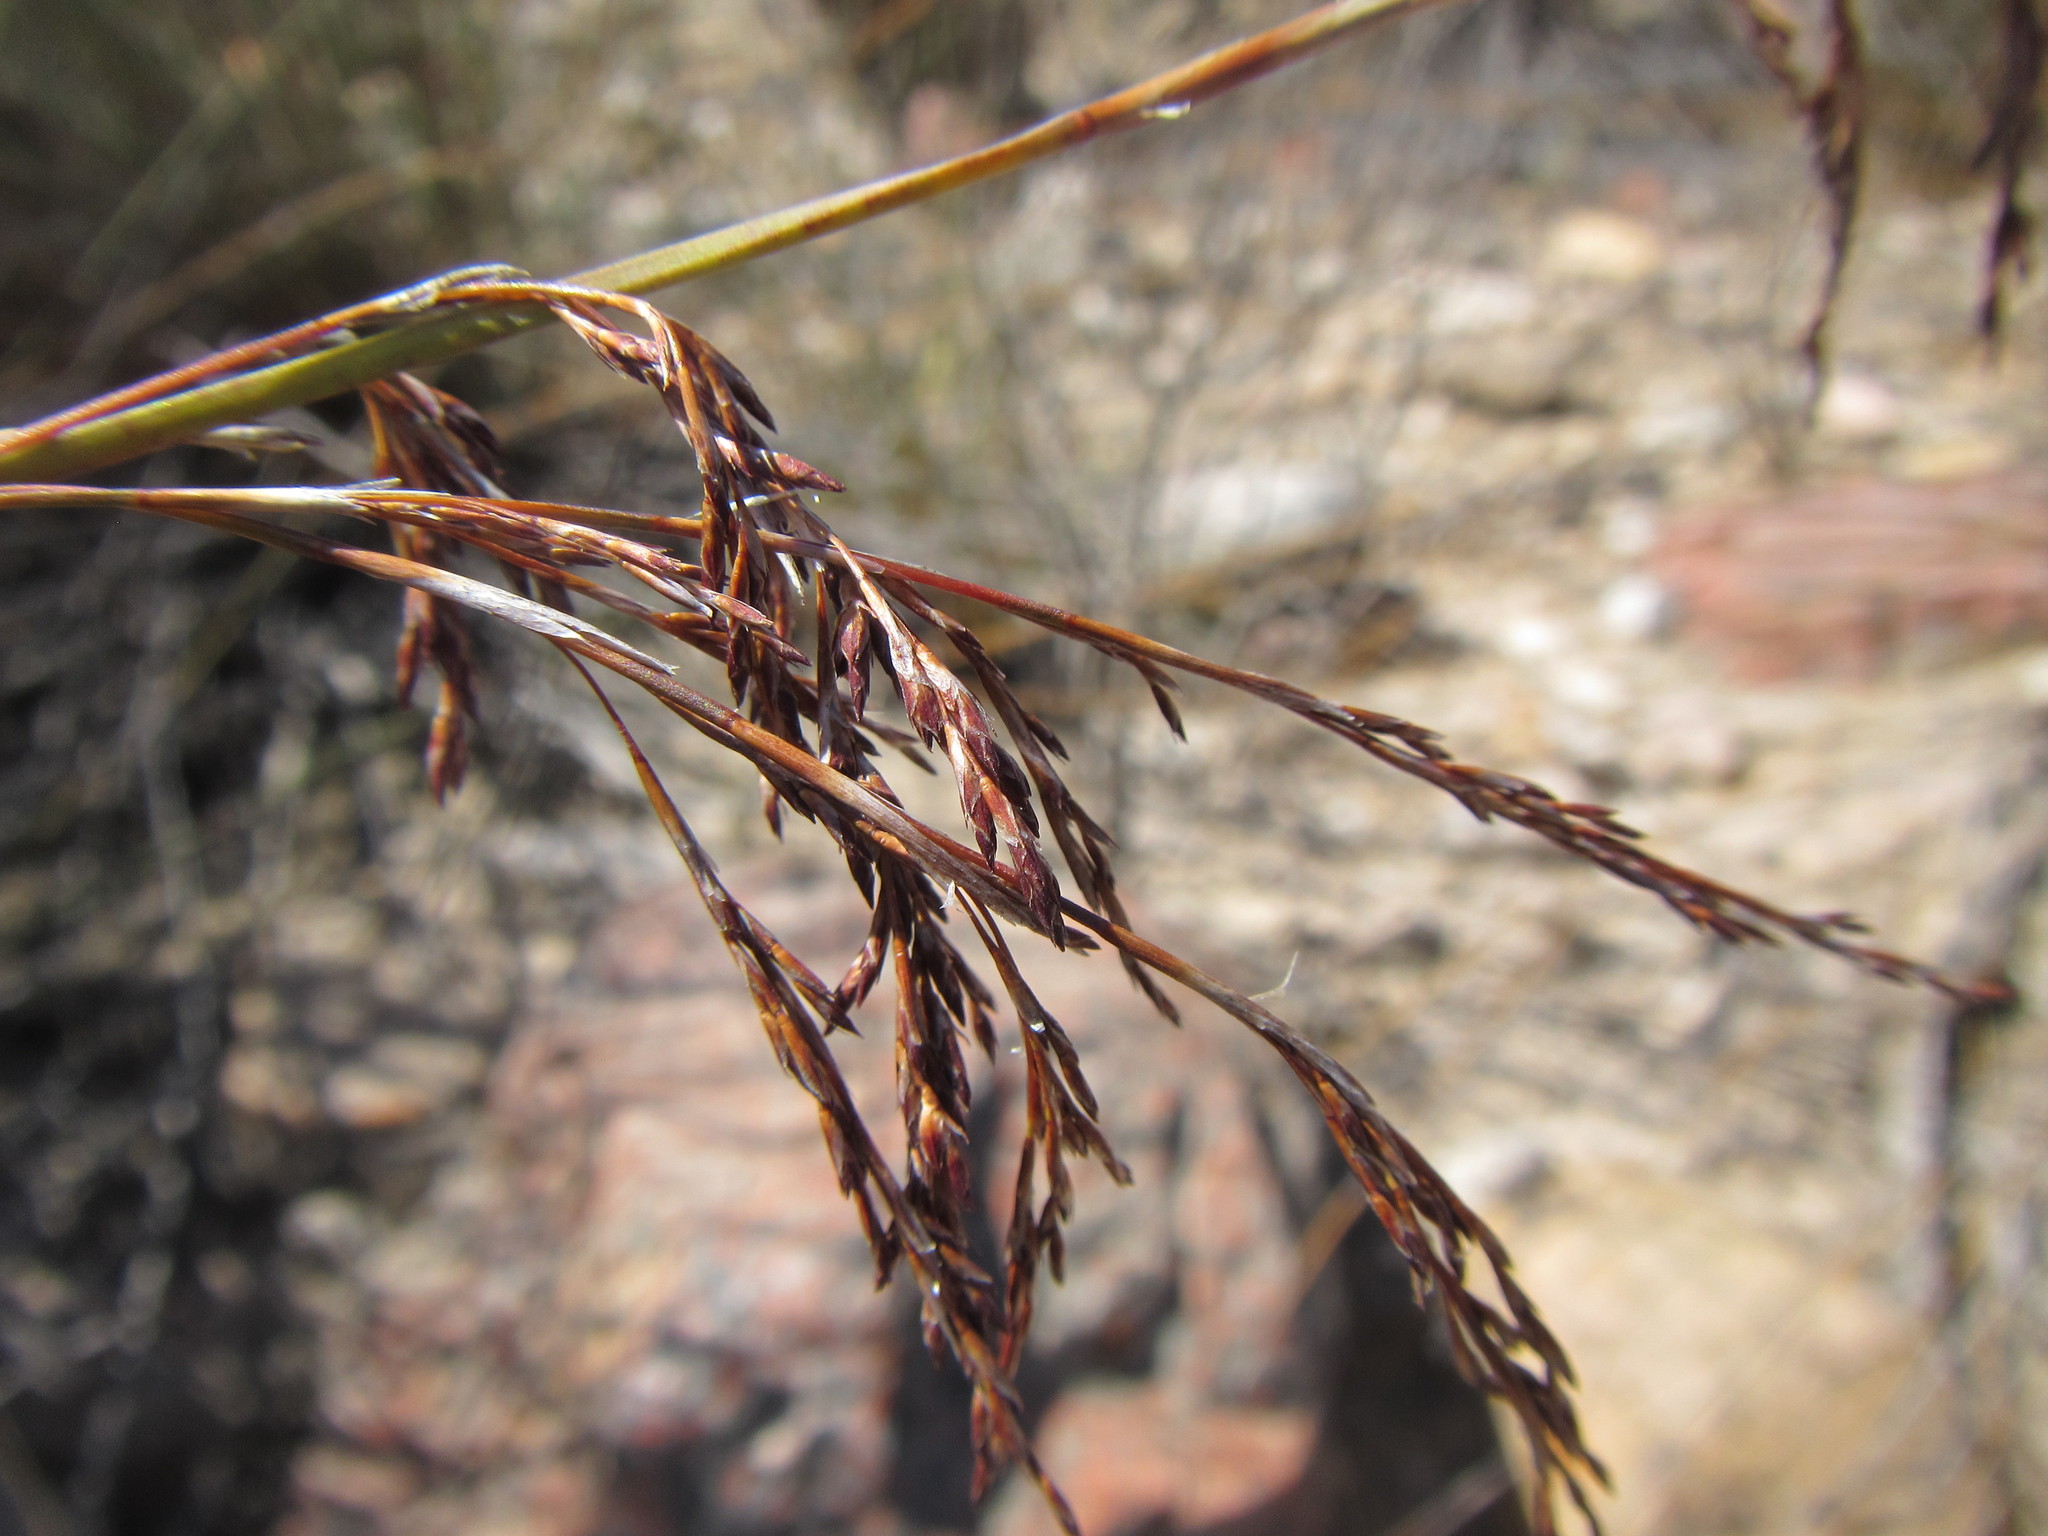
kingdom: Plantae
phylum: Tracheophyta
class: Liliopsida
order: Poales
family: Restionaceae
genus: Rhodocoma
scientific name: Rhodocoma arida
